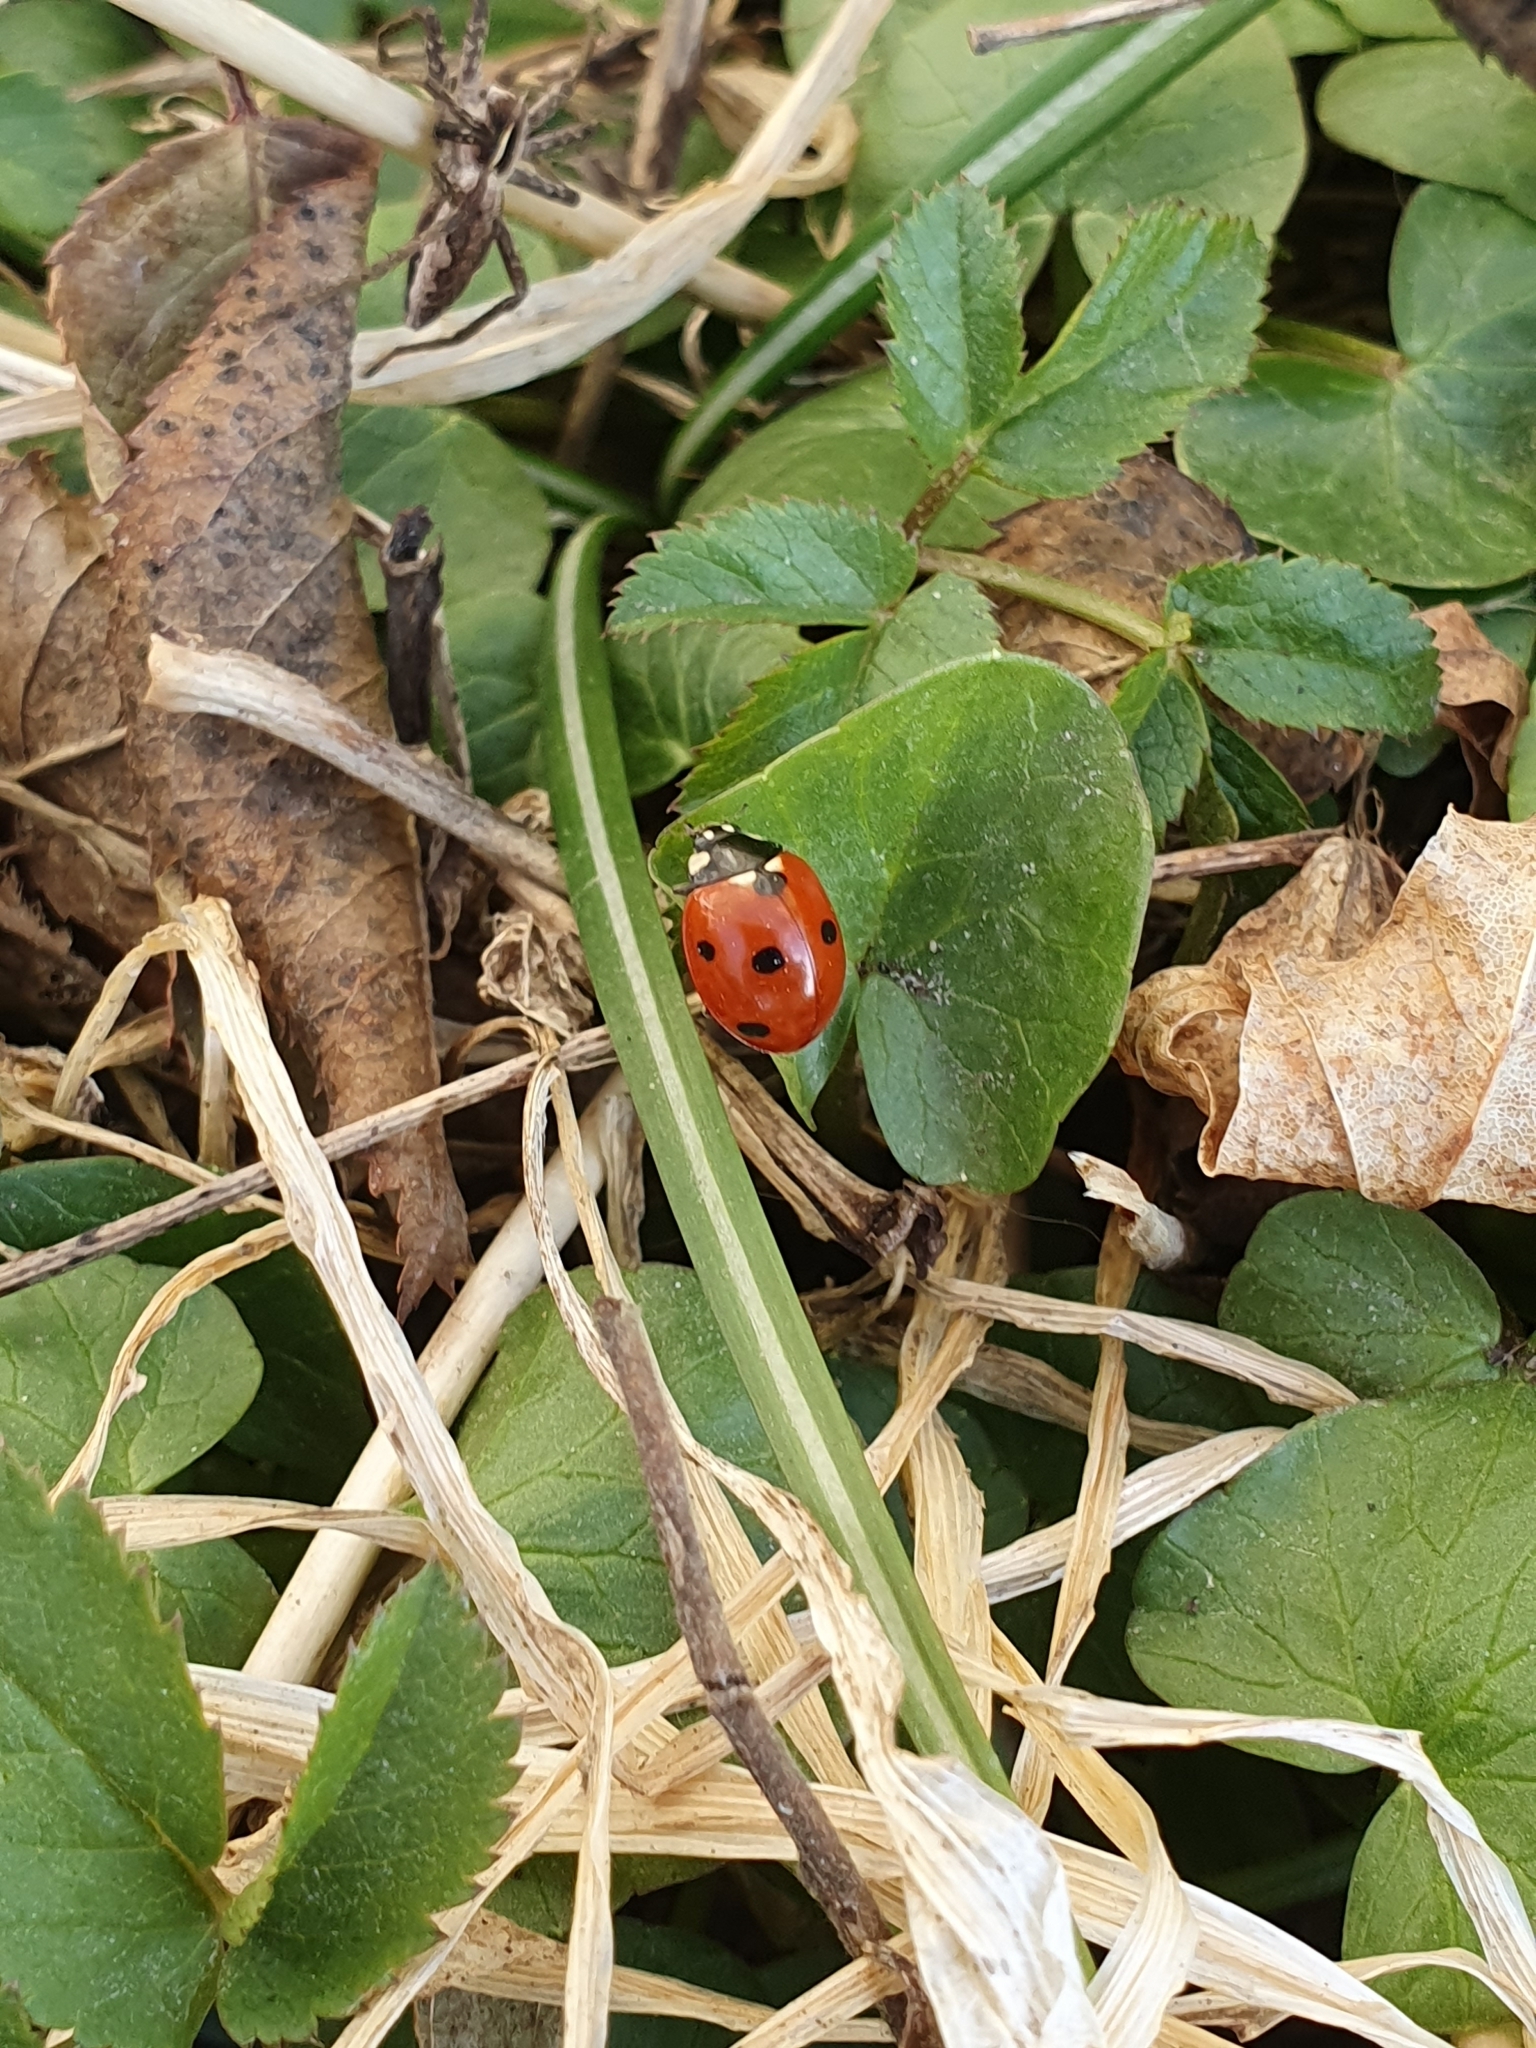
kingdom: Animalia
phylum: Arthropoda
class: Insecta
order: Coleoptera
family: Coccinellidae
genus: Coccinella
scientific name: Coccinella septempunctata
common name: Sevenspotted lady beetle
